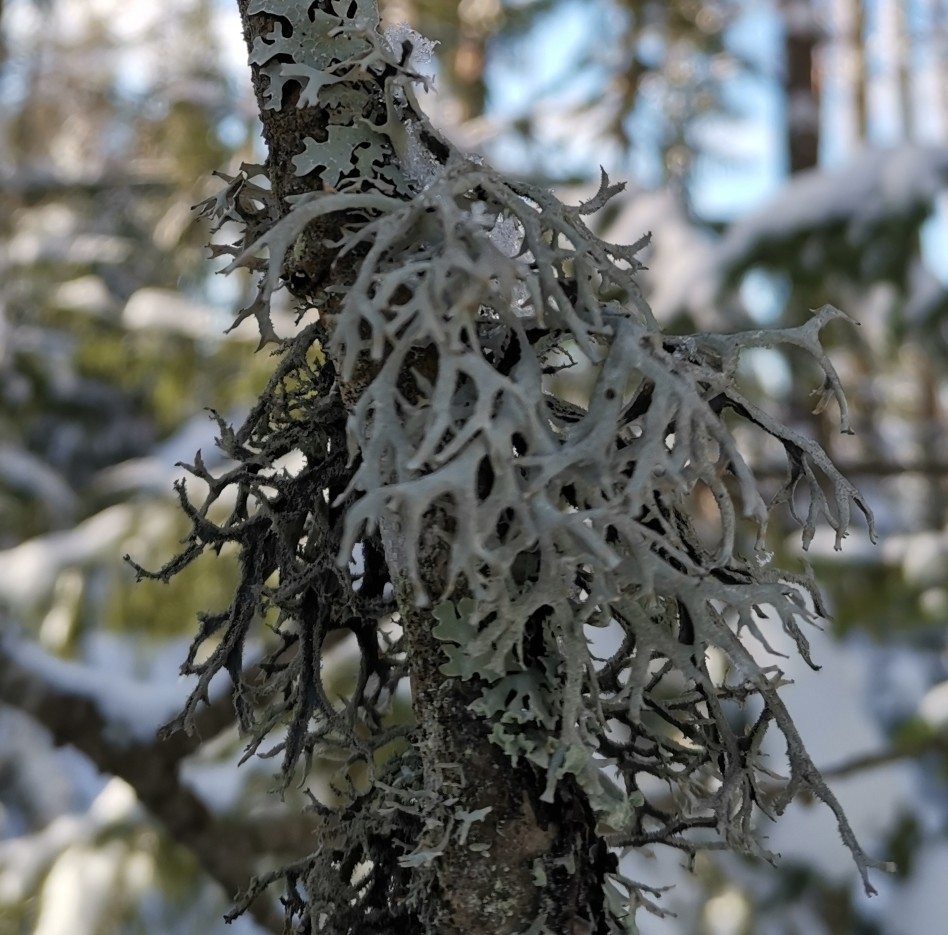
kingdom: Fungi
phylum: Ascomycota
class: Lecanoromycetes
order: Lecanorales
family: Parmeliaceae
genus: Pseudevernia
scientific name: Pseudevernia furfuracea
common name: Tree moss
